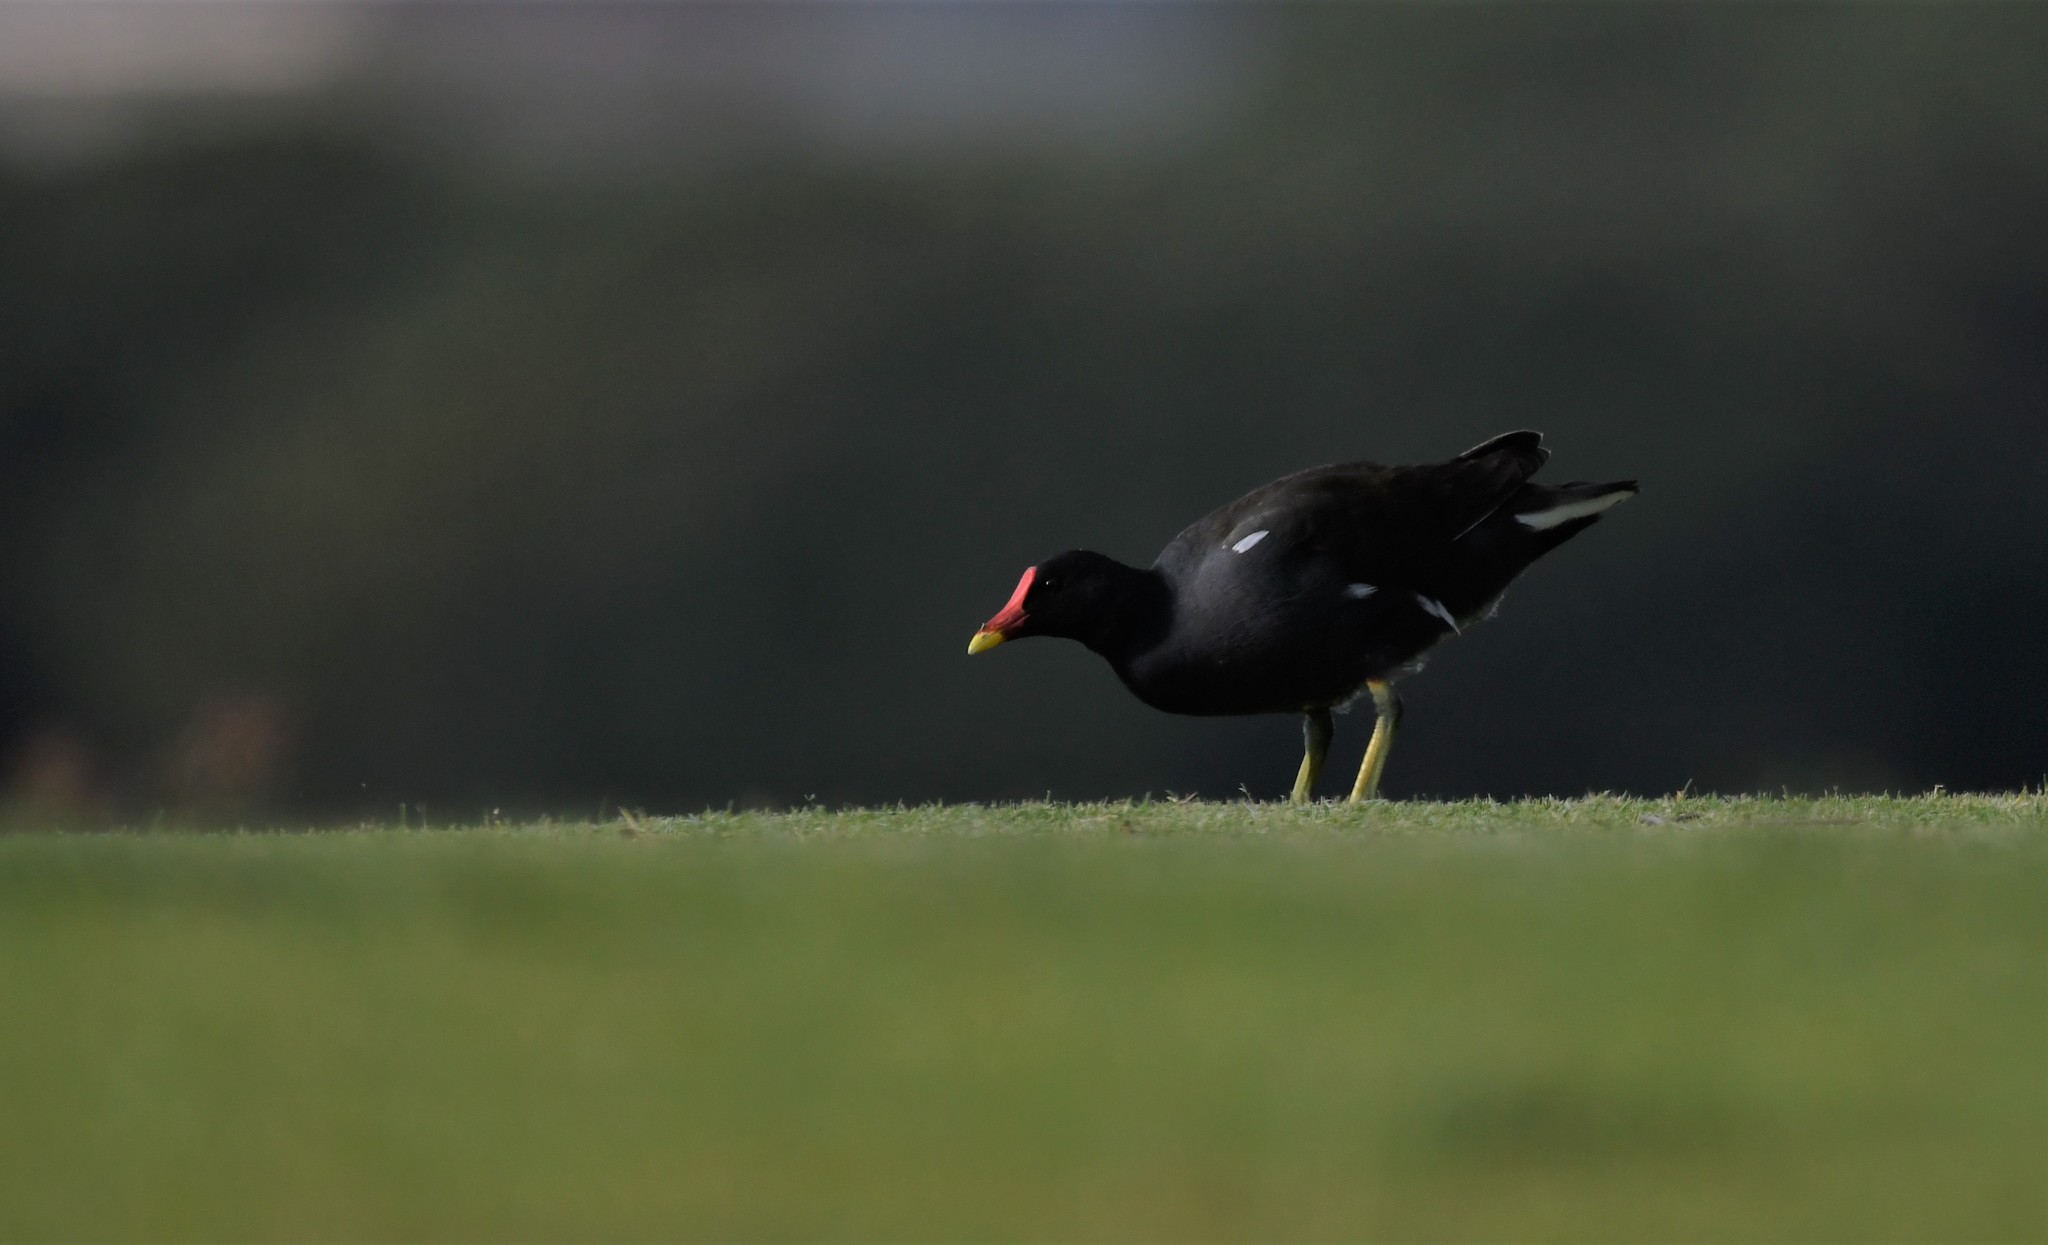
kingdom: Animalia
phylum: Chordata
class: Aves
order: Gruiformes
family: Rallidae
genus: Gallinula
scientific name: Gallinula chloropus
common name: Common moorhen
